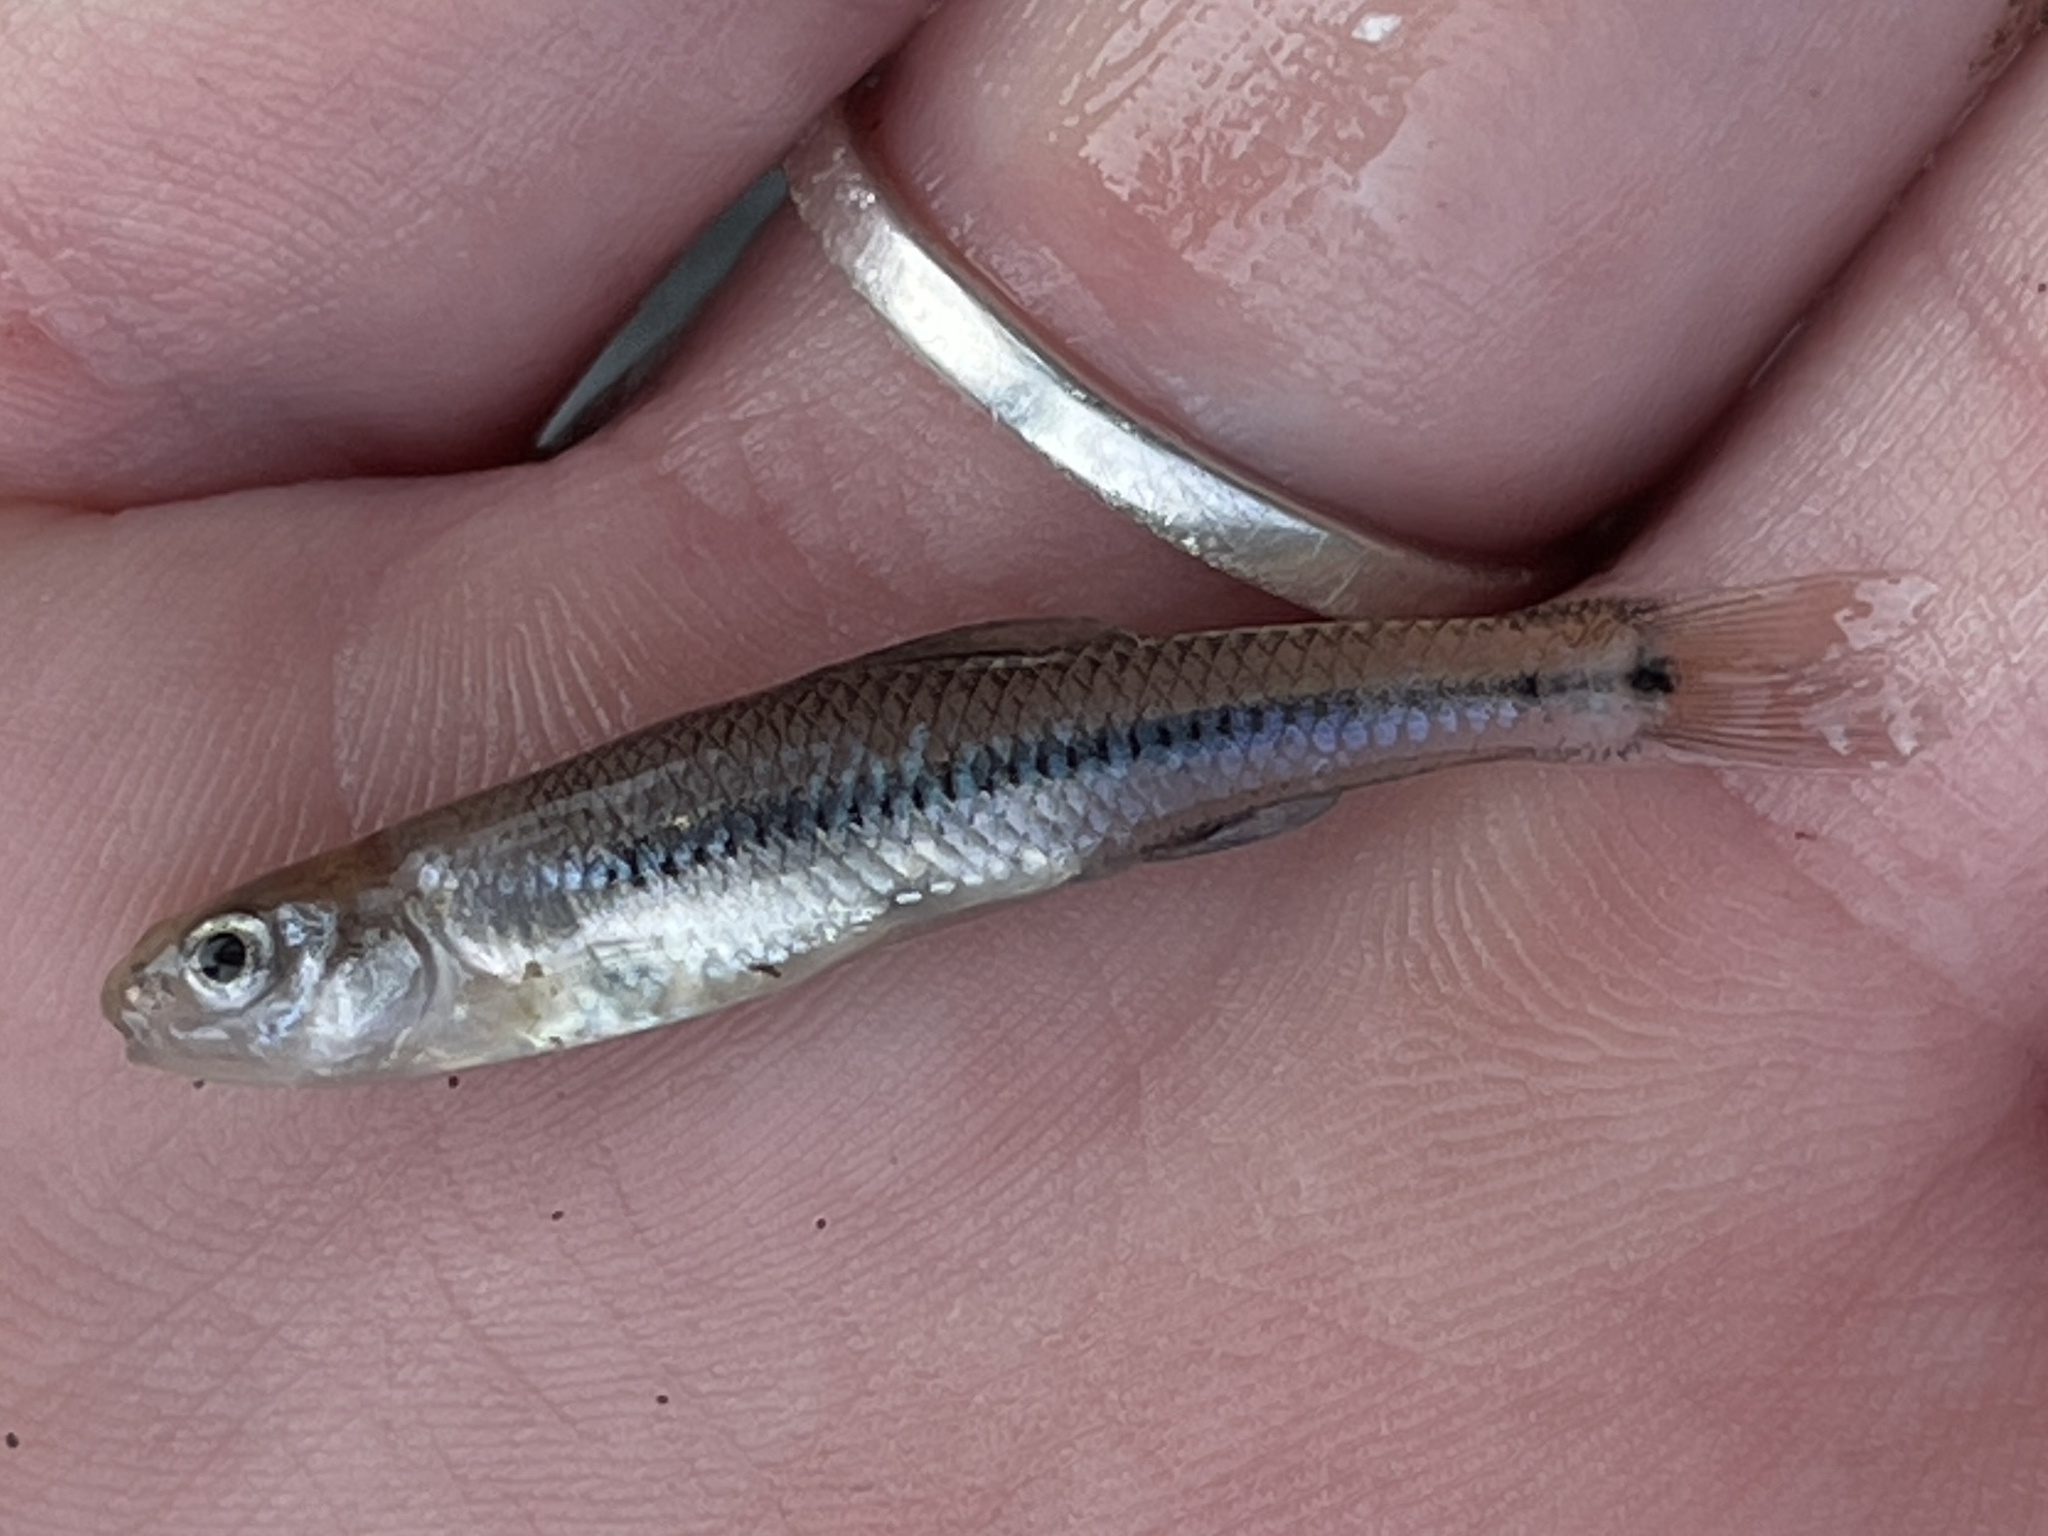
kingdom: Animalia
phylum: Chordata
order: Cypriniformes
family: Cyprinidae
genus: Pimephales
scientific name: Pimephales notatus
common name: Bluntnose minnow
